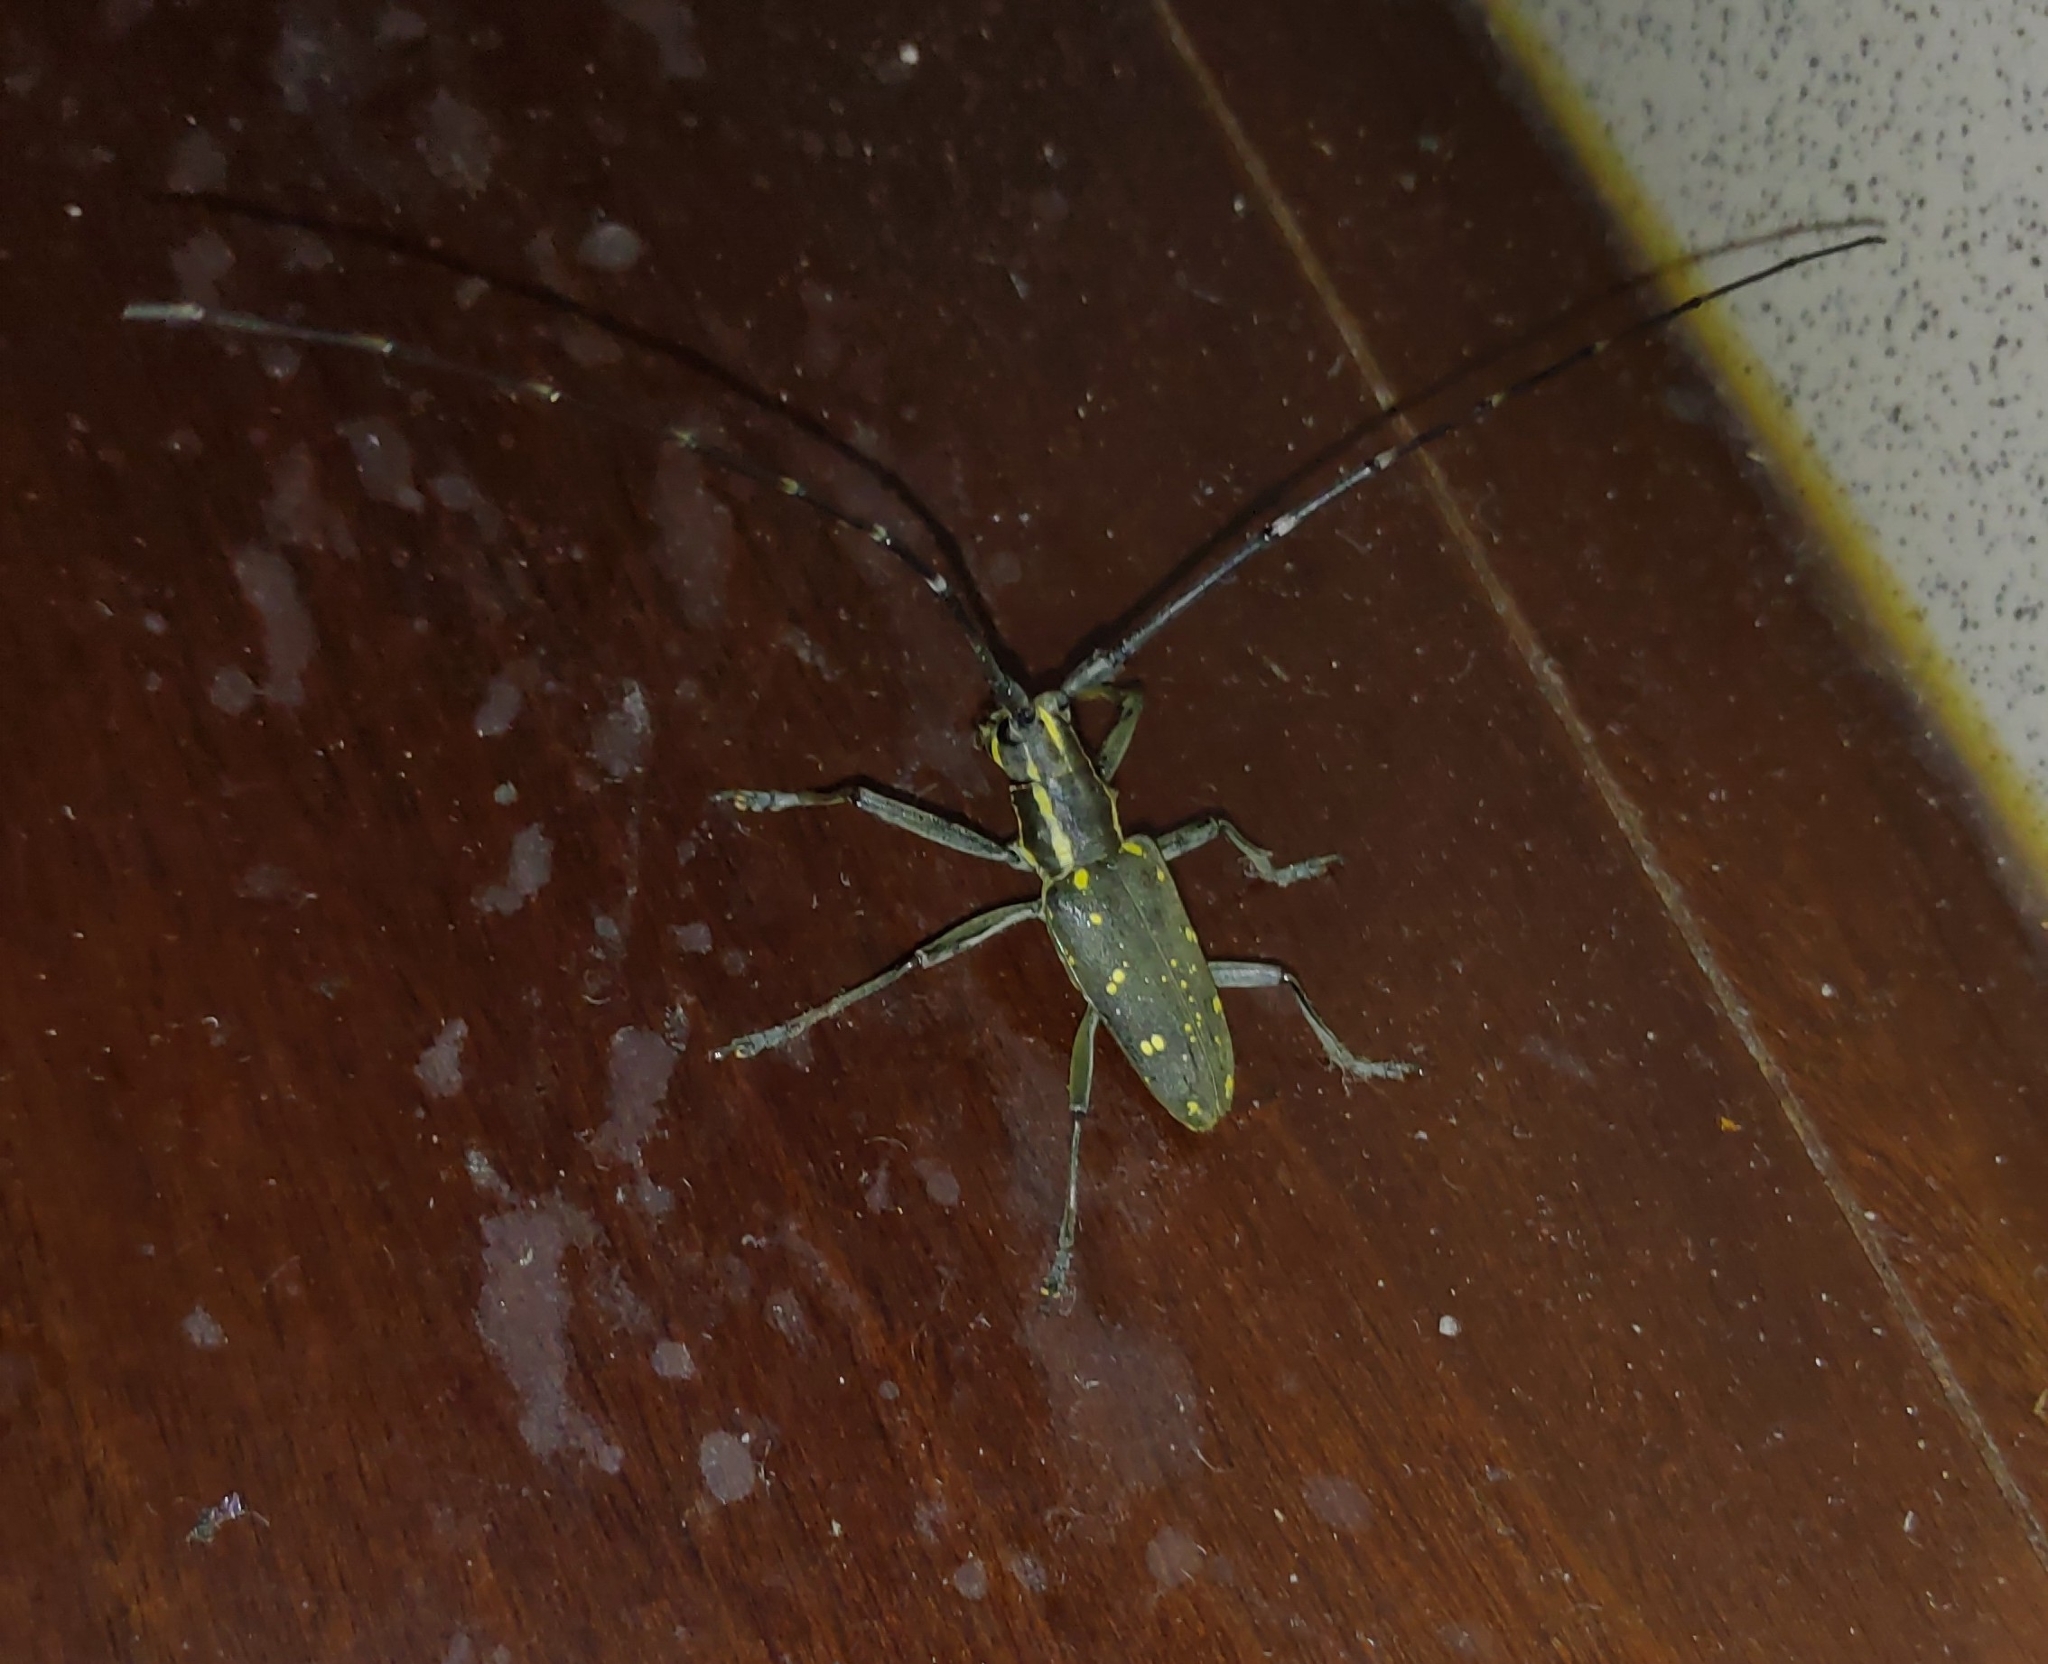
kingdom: Animalia
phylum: Arthropoda
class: Insecta
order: Coleoptera
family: Cerambycidae
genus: Psacothea
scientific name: Psacothea hilaris
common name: Yellow-spotted longicorn beetle
